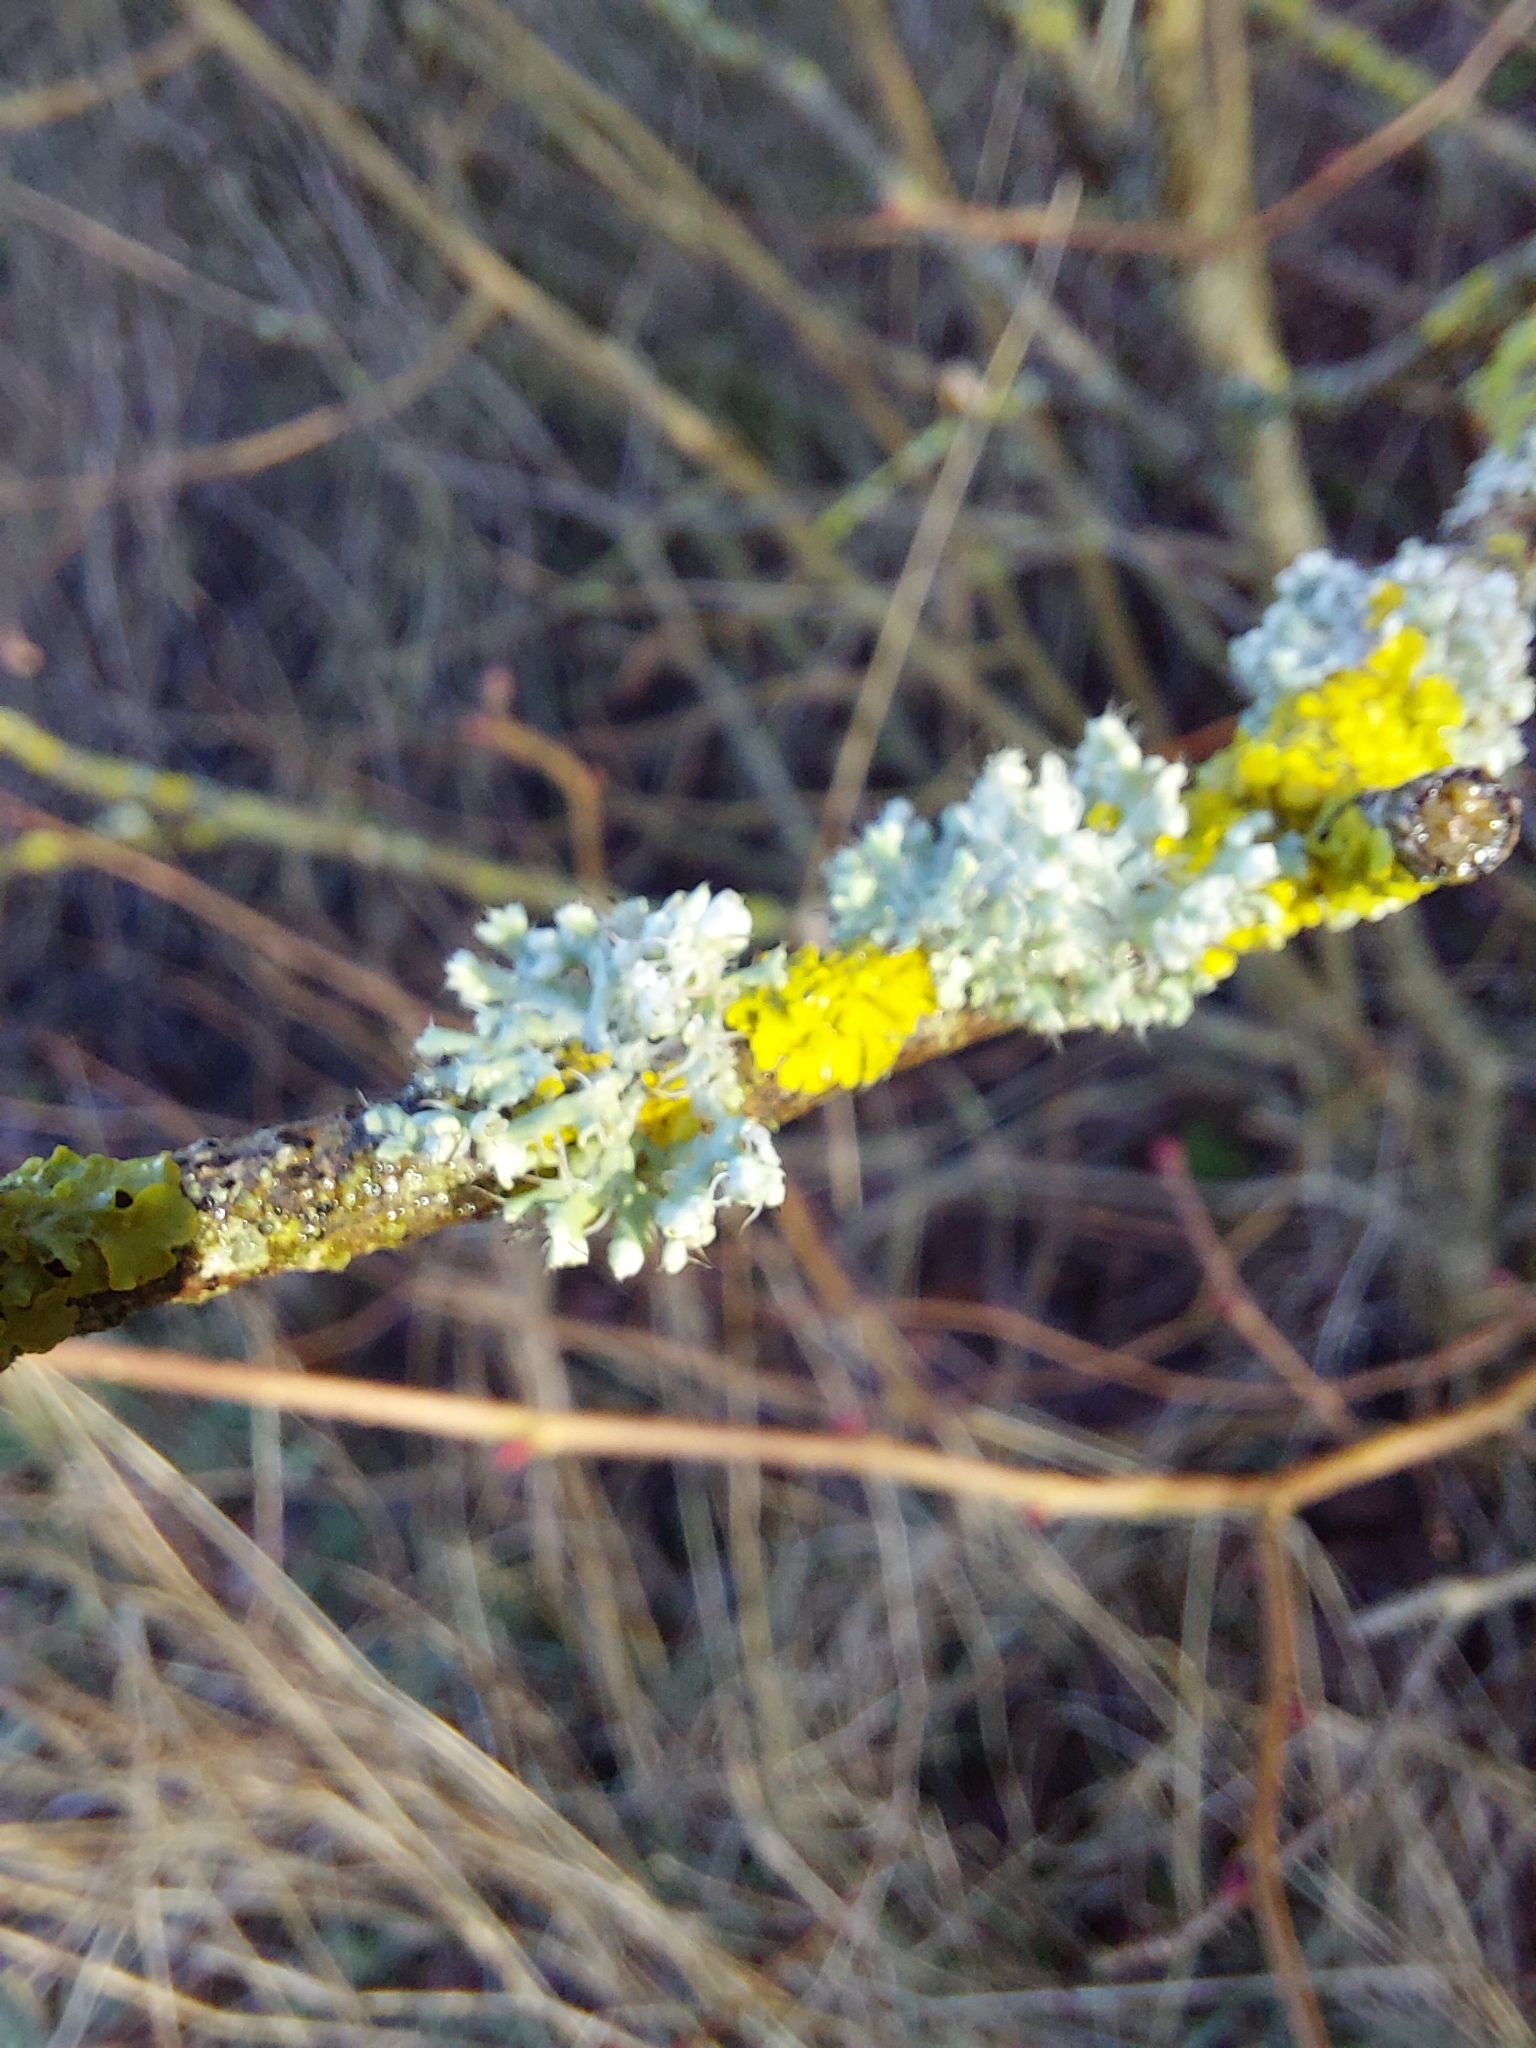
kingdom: Fungi
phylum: Ascomycota
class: Lecanoromycetes
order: Caliciales
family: Physciaceae
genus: Physcia
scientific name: Physcia adscendens
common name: Hooded rosette lichen
